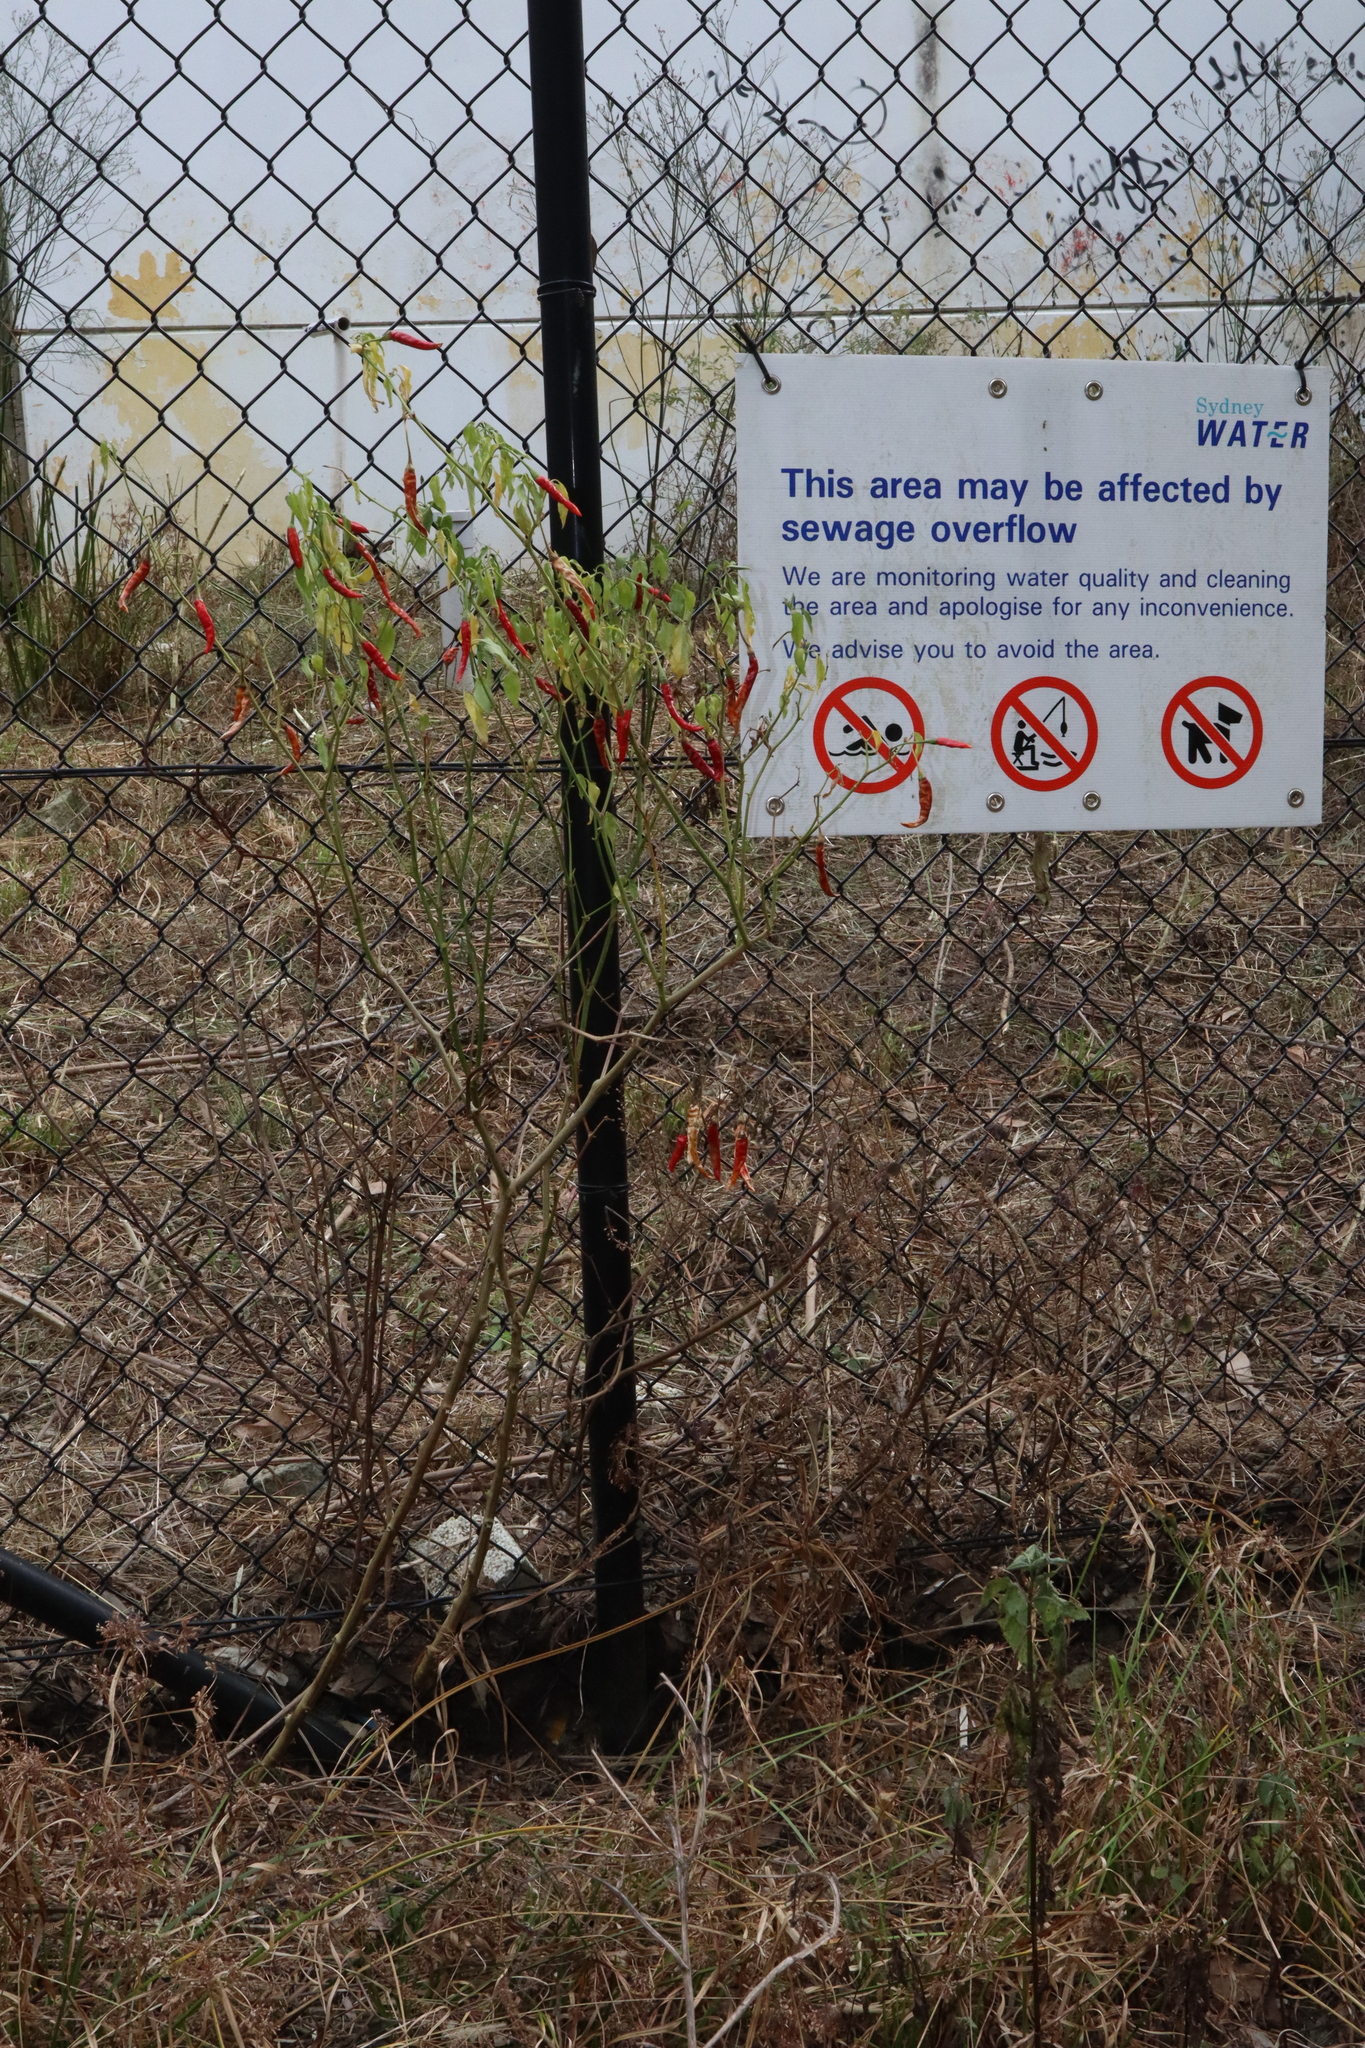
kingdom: Plantae
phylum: Tracheophyta
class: Magnoliopsida
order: Solanales
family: Solanaceae
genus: Capsicum
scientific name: Capsicum annuum
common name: Sweet pepper
